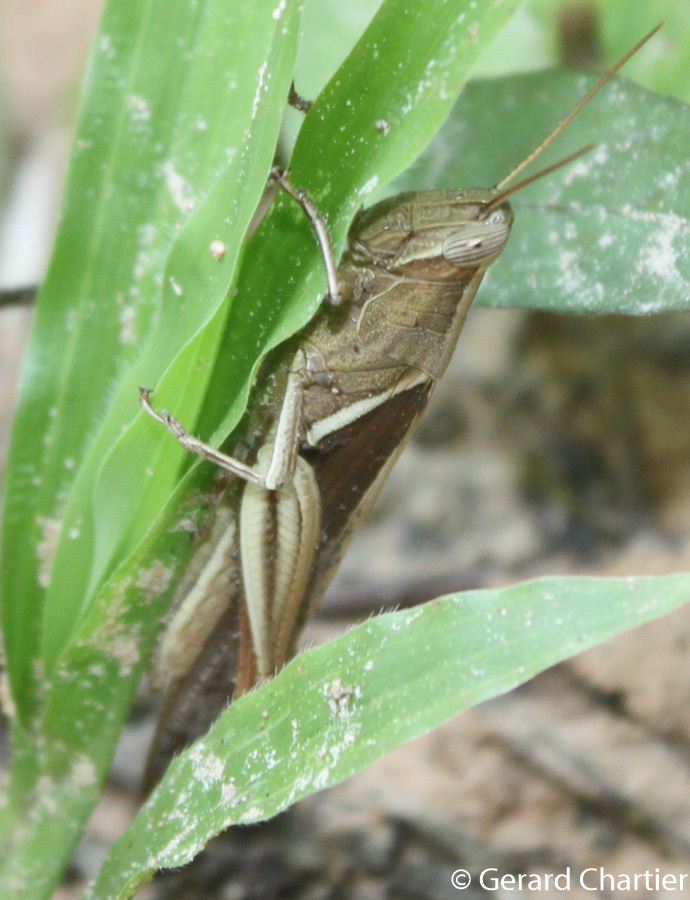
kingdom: Animalia
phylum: Arthropoda
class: Insecta
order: Orthoptera
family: Acrididae
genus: Stenocatantops
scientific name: Stenocatantops splendens
